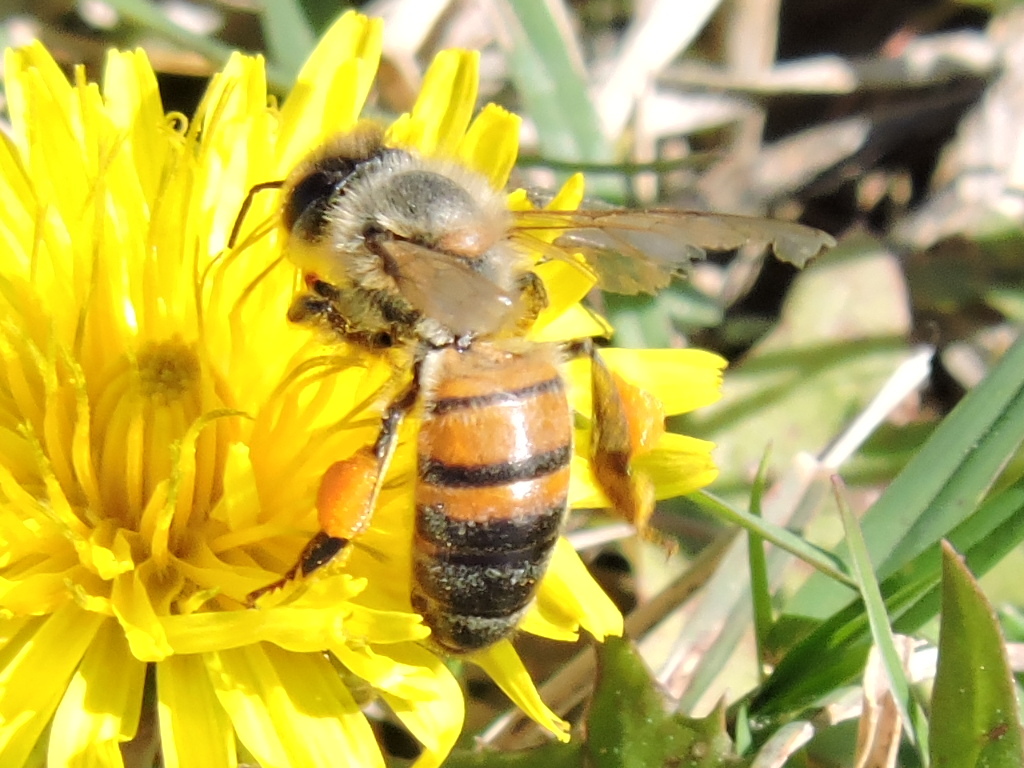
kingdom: Animalia
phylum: Arthropoda
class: Insecta
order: Hymenoptera
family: Apidae
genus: Apis
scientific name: Apis mellifera
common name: Honey bee
